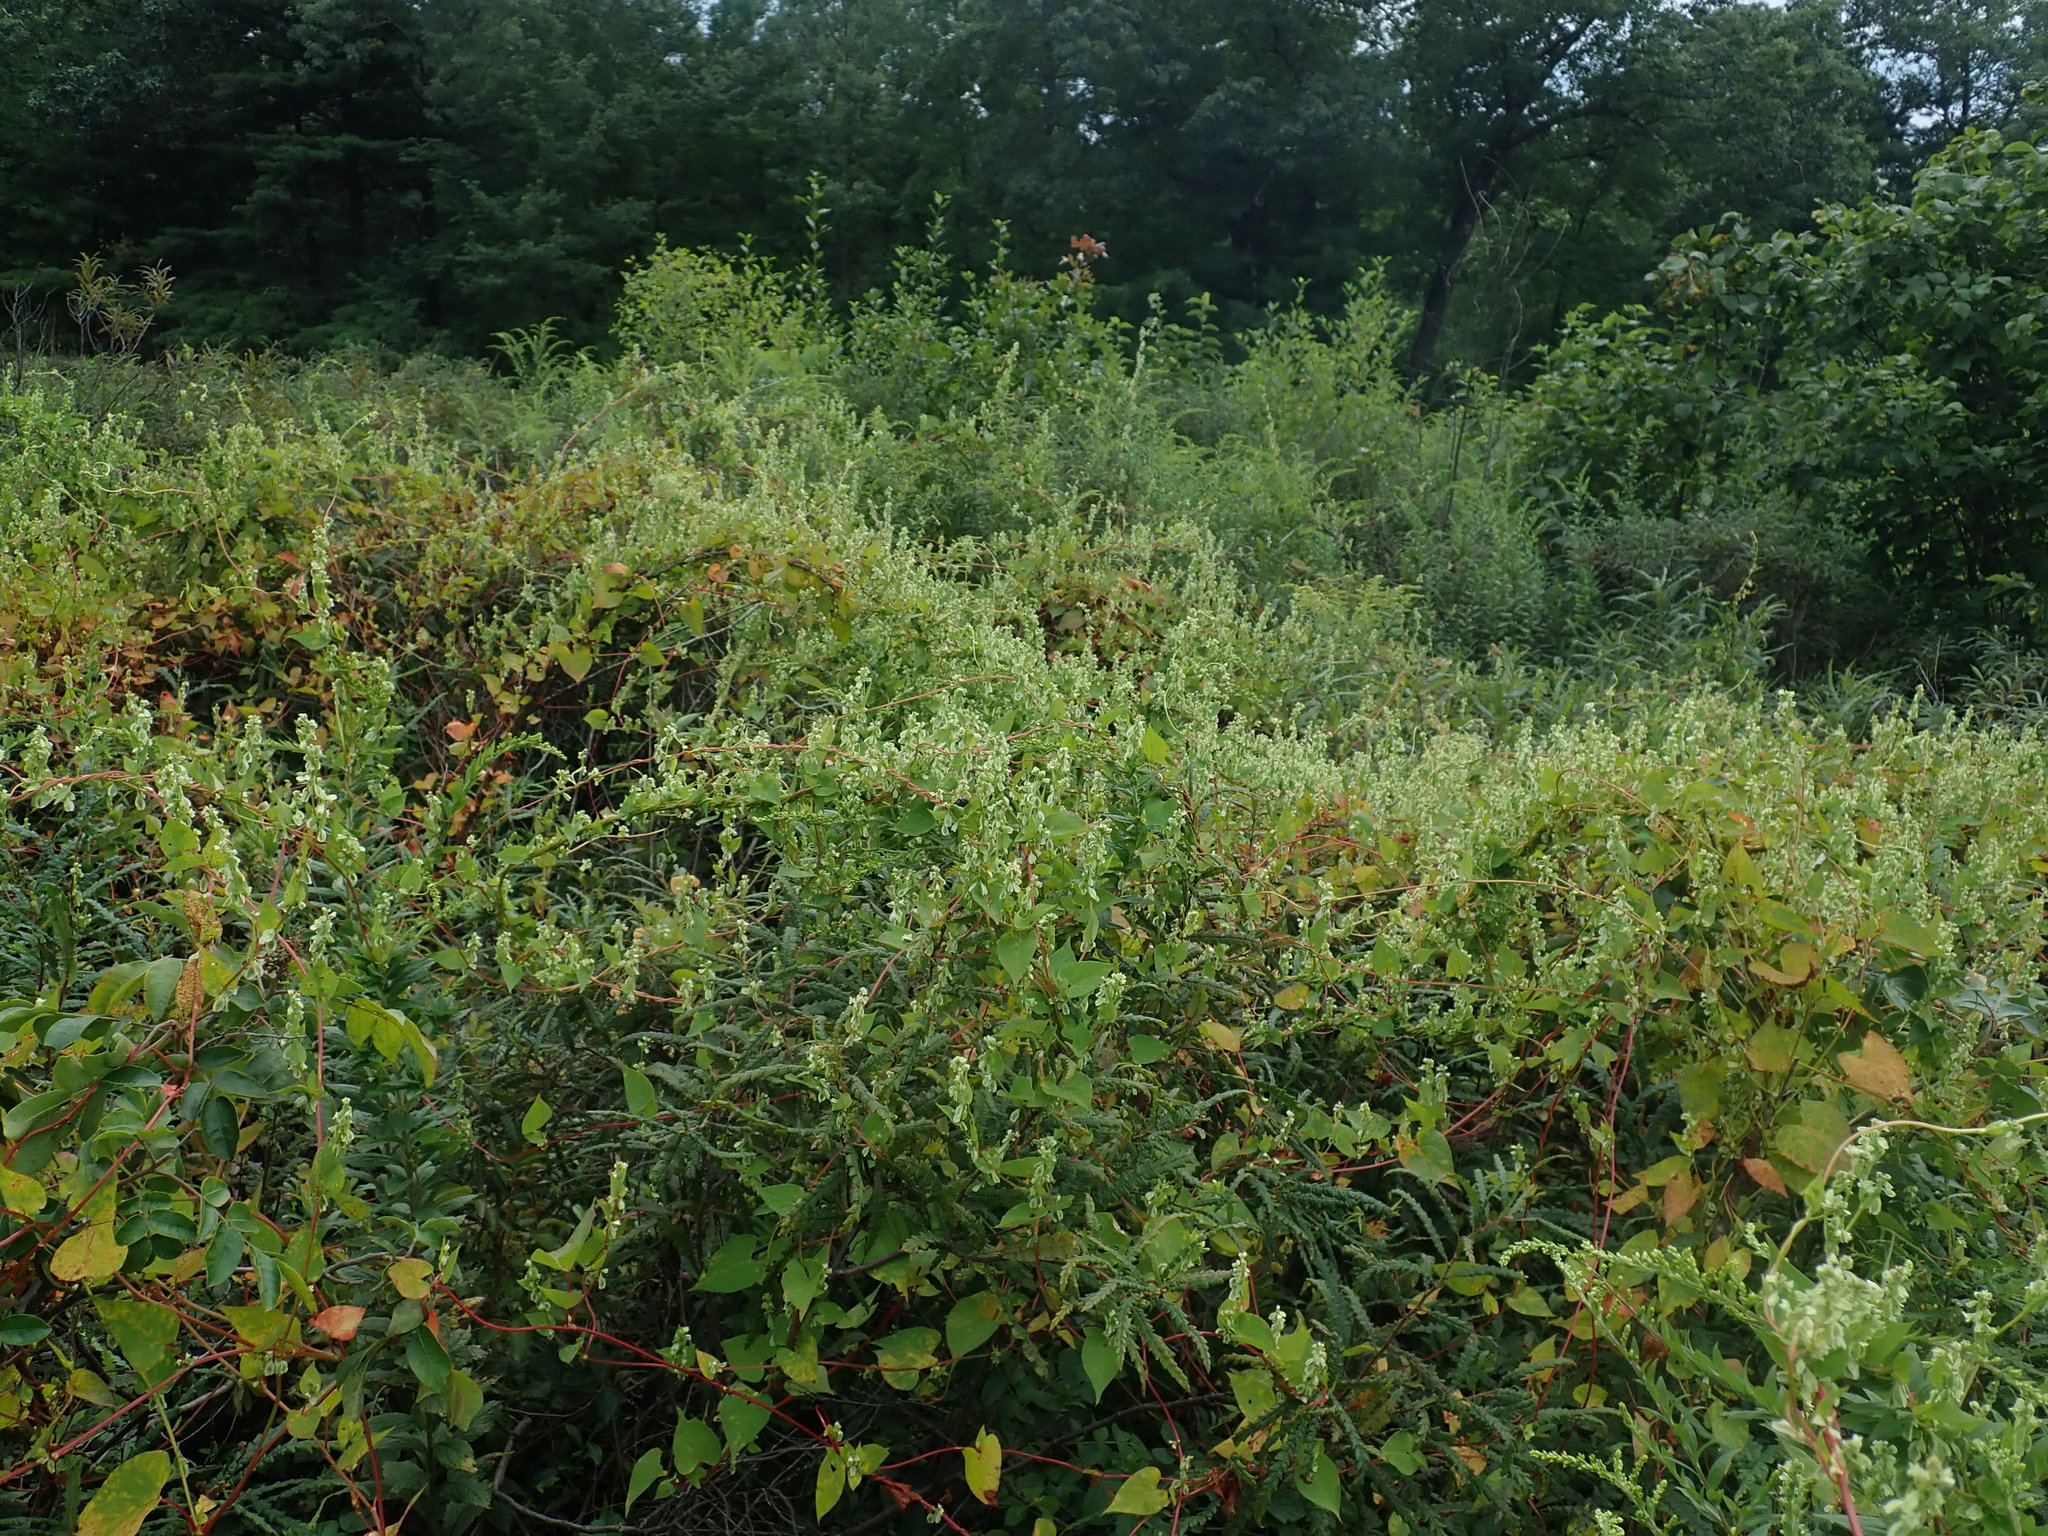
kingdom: Plantae
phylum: Tracheophyta
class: Magnoliopsida
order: Caryophyllales
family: Polygonaceae
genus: Fallopia
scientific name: Fallopia scandens
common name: Climbing false buckwheat
